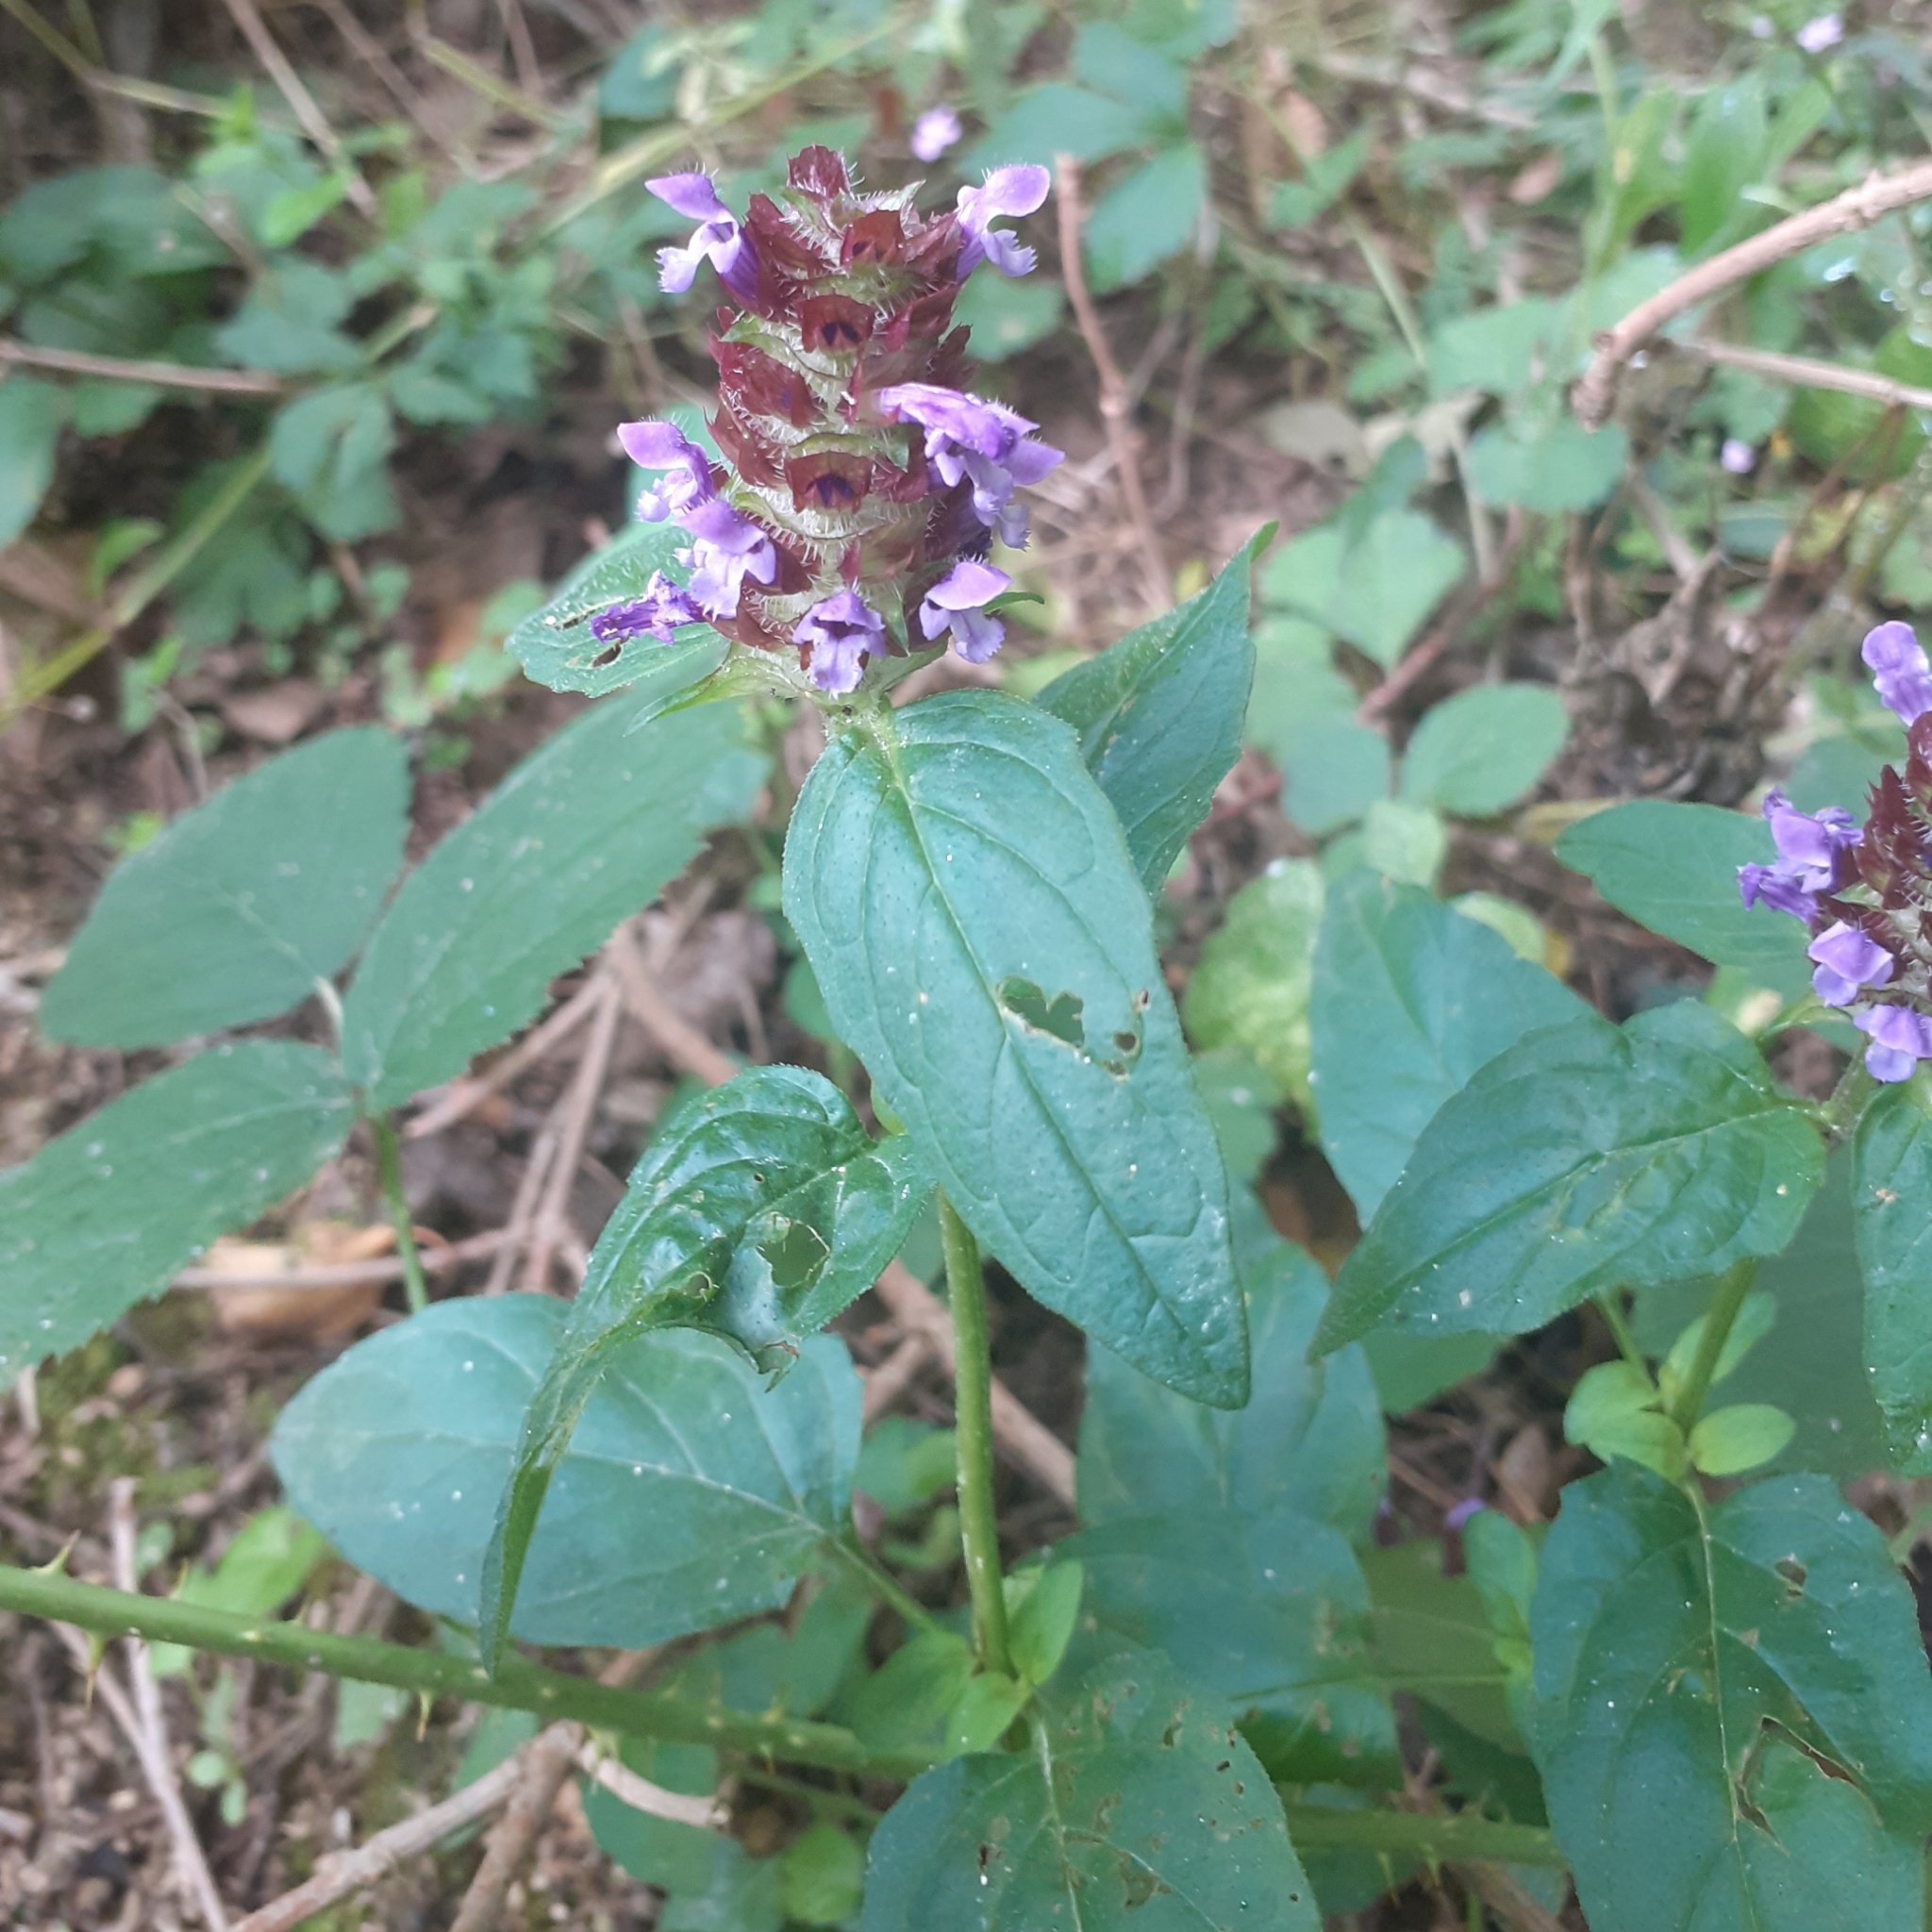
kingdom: Plantae
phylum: Tracheophyta
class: Magnoliopsida
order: Lamiales
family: Lamiaceae
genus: Prunella
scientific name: Prunella vulgaris
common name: Heal-all
